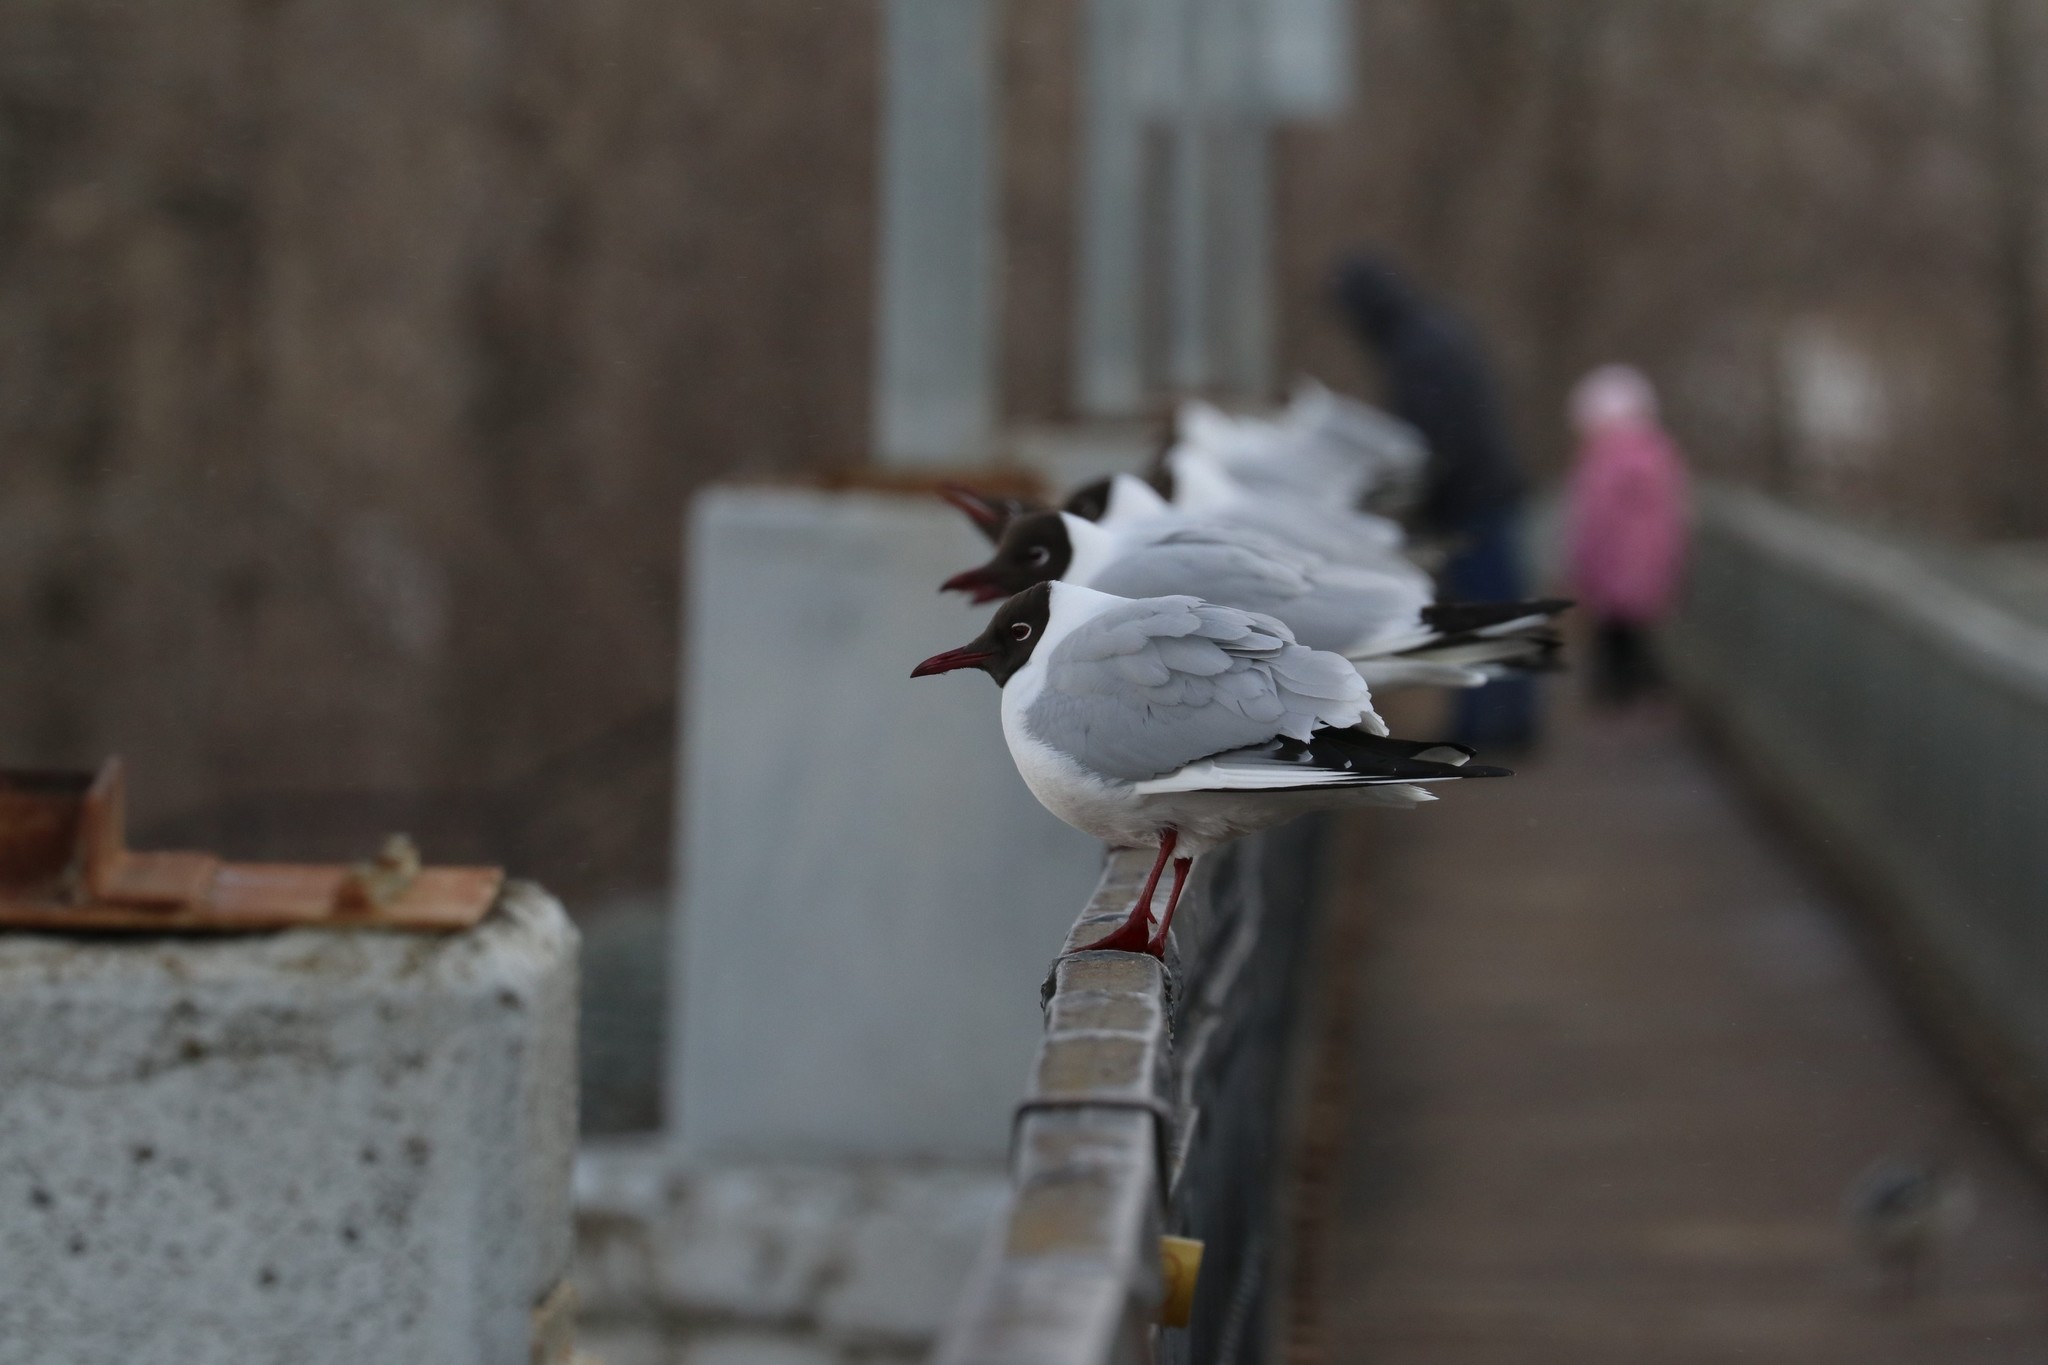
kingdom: Animalia
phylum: Chordata
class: Aves
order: Charadriiformes
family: Laridae
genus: Chroicocephalus
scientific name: Chroicocephalus ridibundus
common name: Black-headed gull
